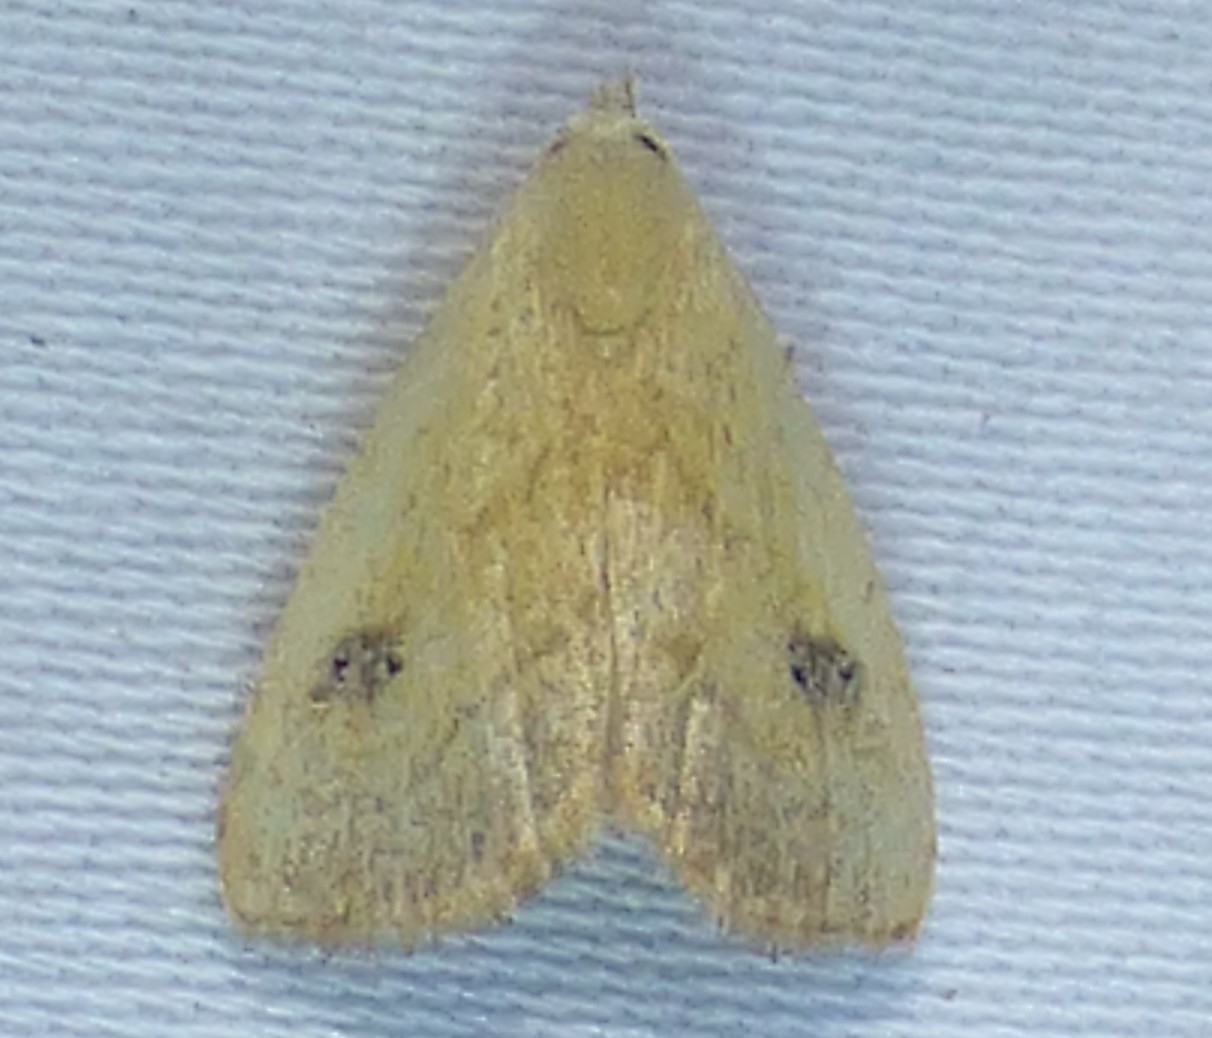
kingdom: Animalia
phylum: Arthropoda
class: Insecta
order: Lepidoptera
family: Erebidae
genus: Rivula
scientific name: Rivula propinqualis
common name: Spotted grass moth
